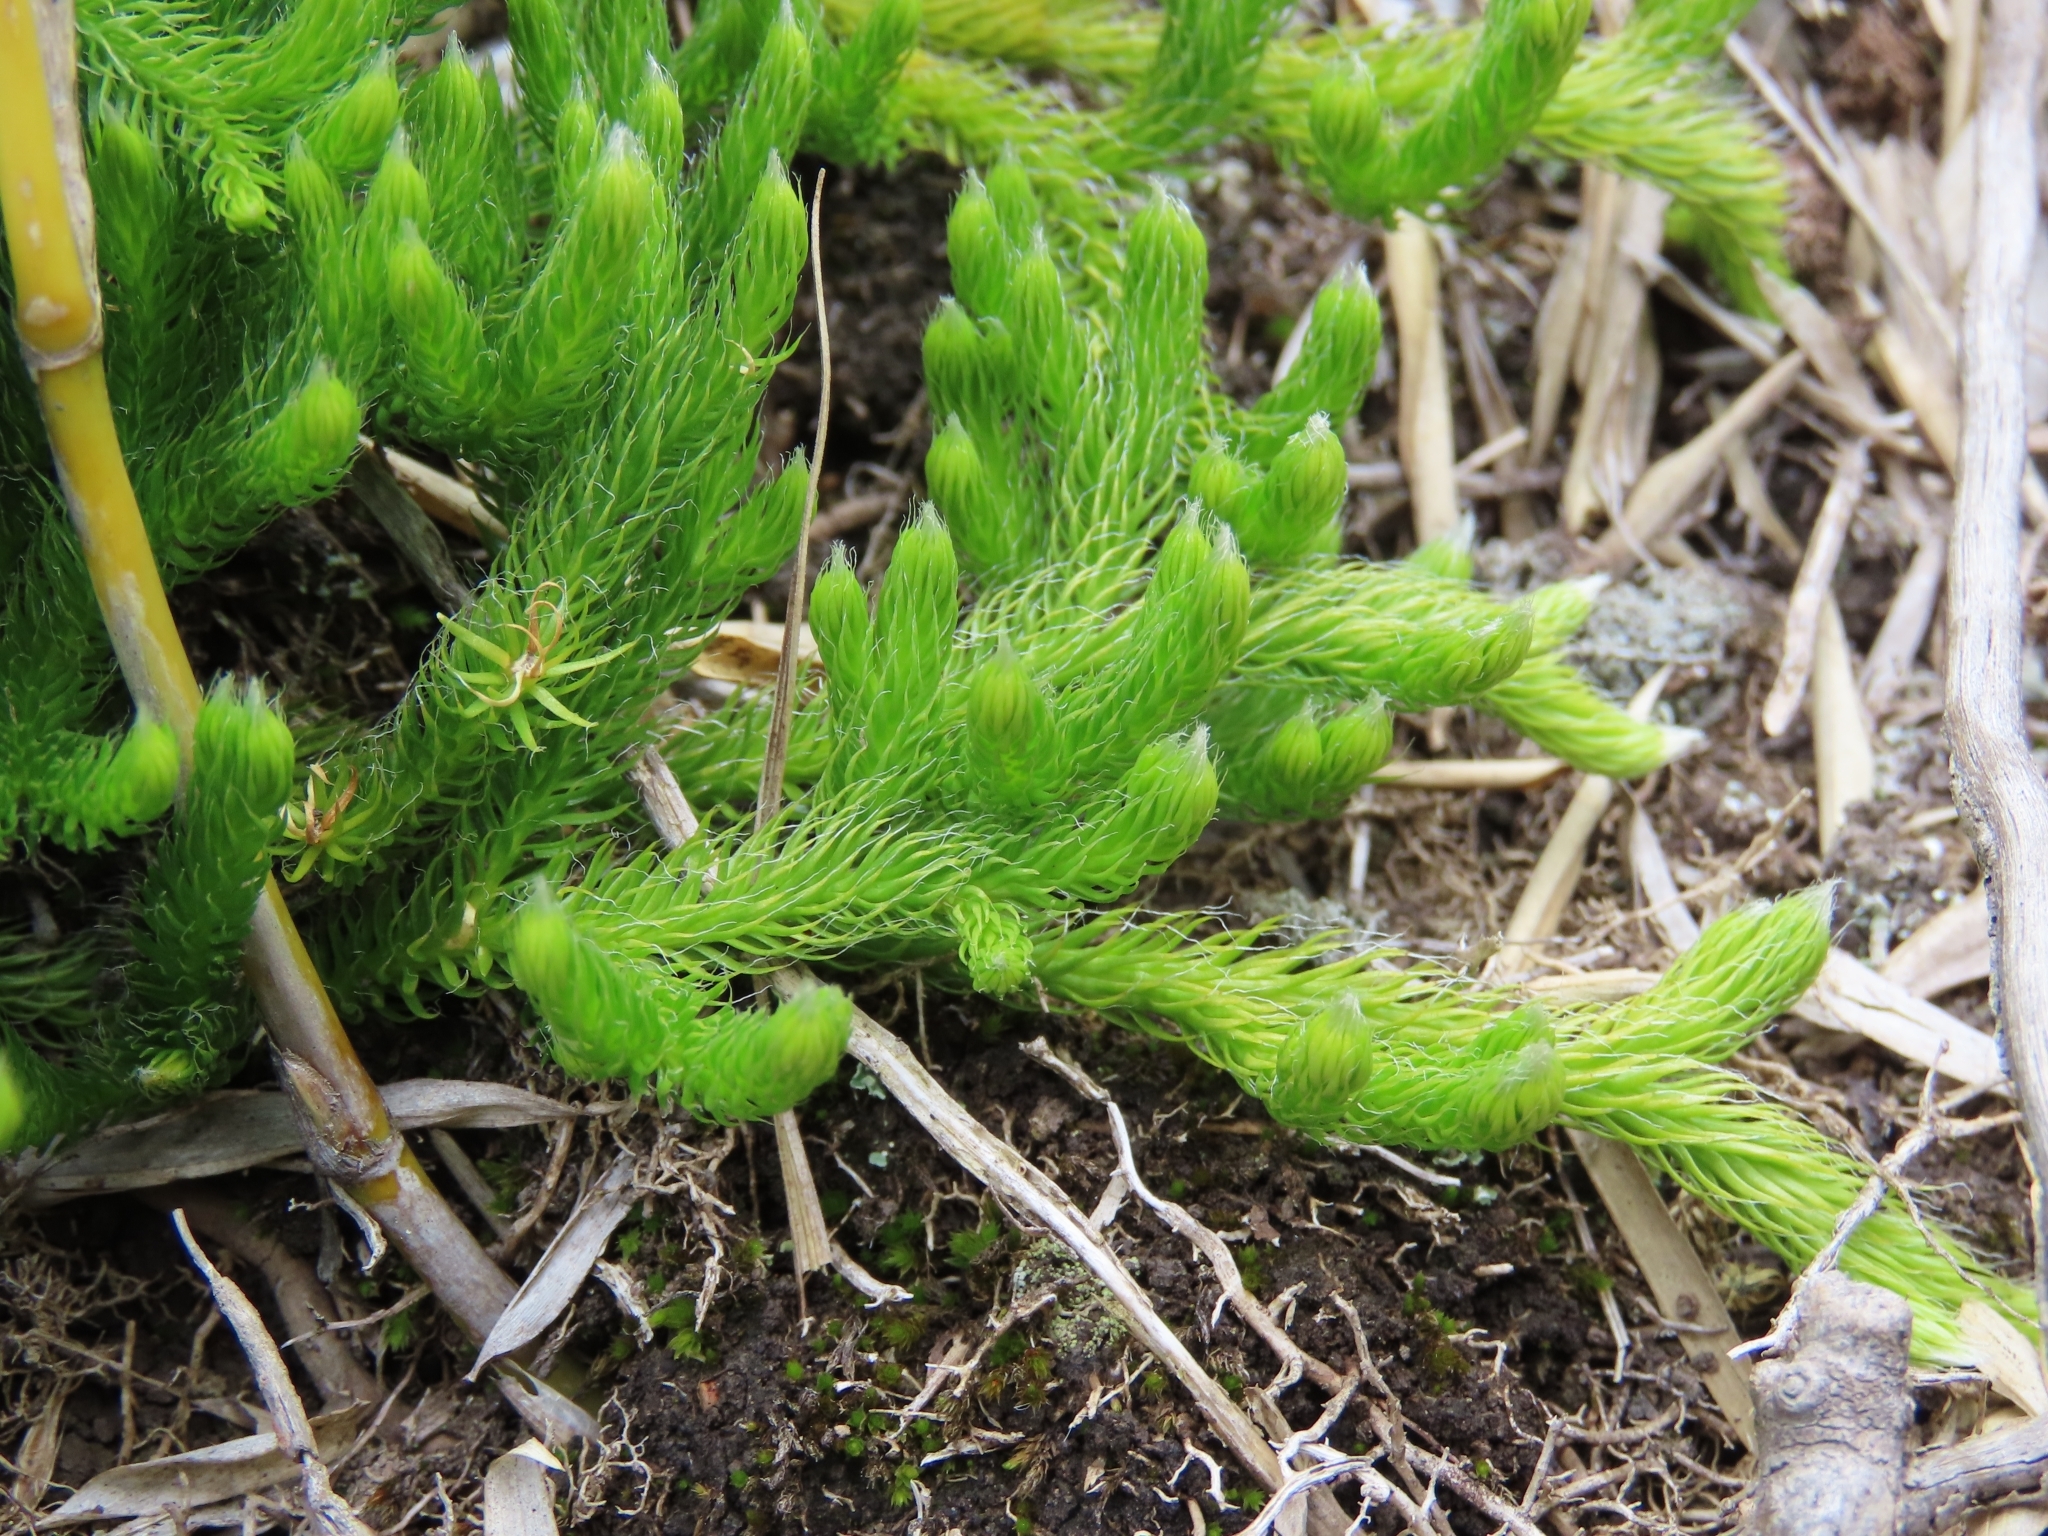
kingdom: Plantae
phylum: Tracheophyta
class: Lycopodiopsida
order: Lycopodiales
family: Lycopodiaceae
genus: Lycopodium
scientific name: Lycopodium clavatum
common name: Stag's-horn clubmoss
